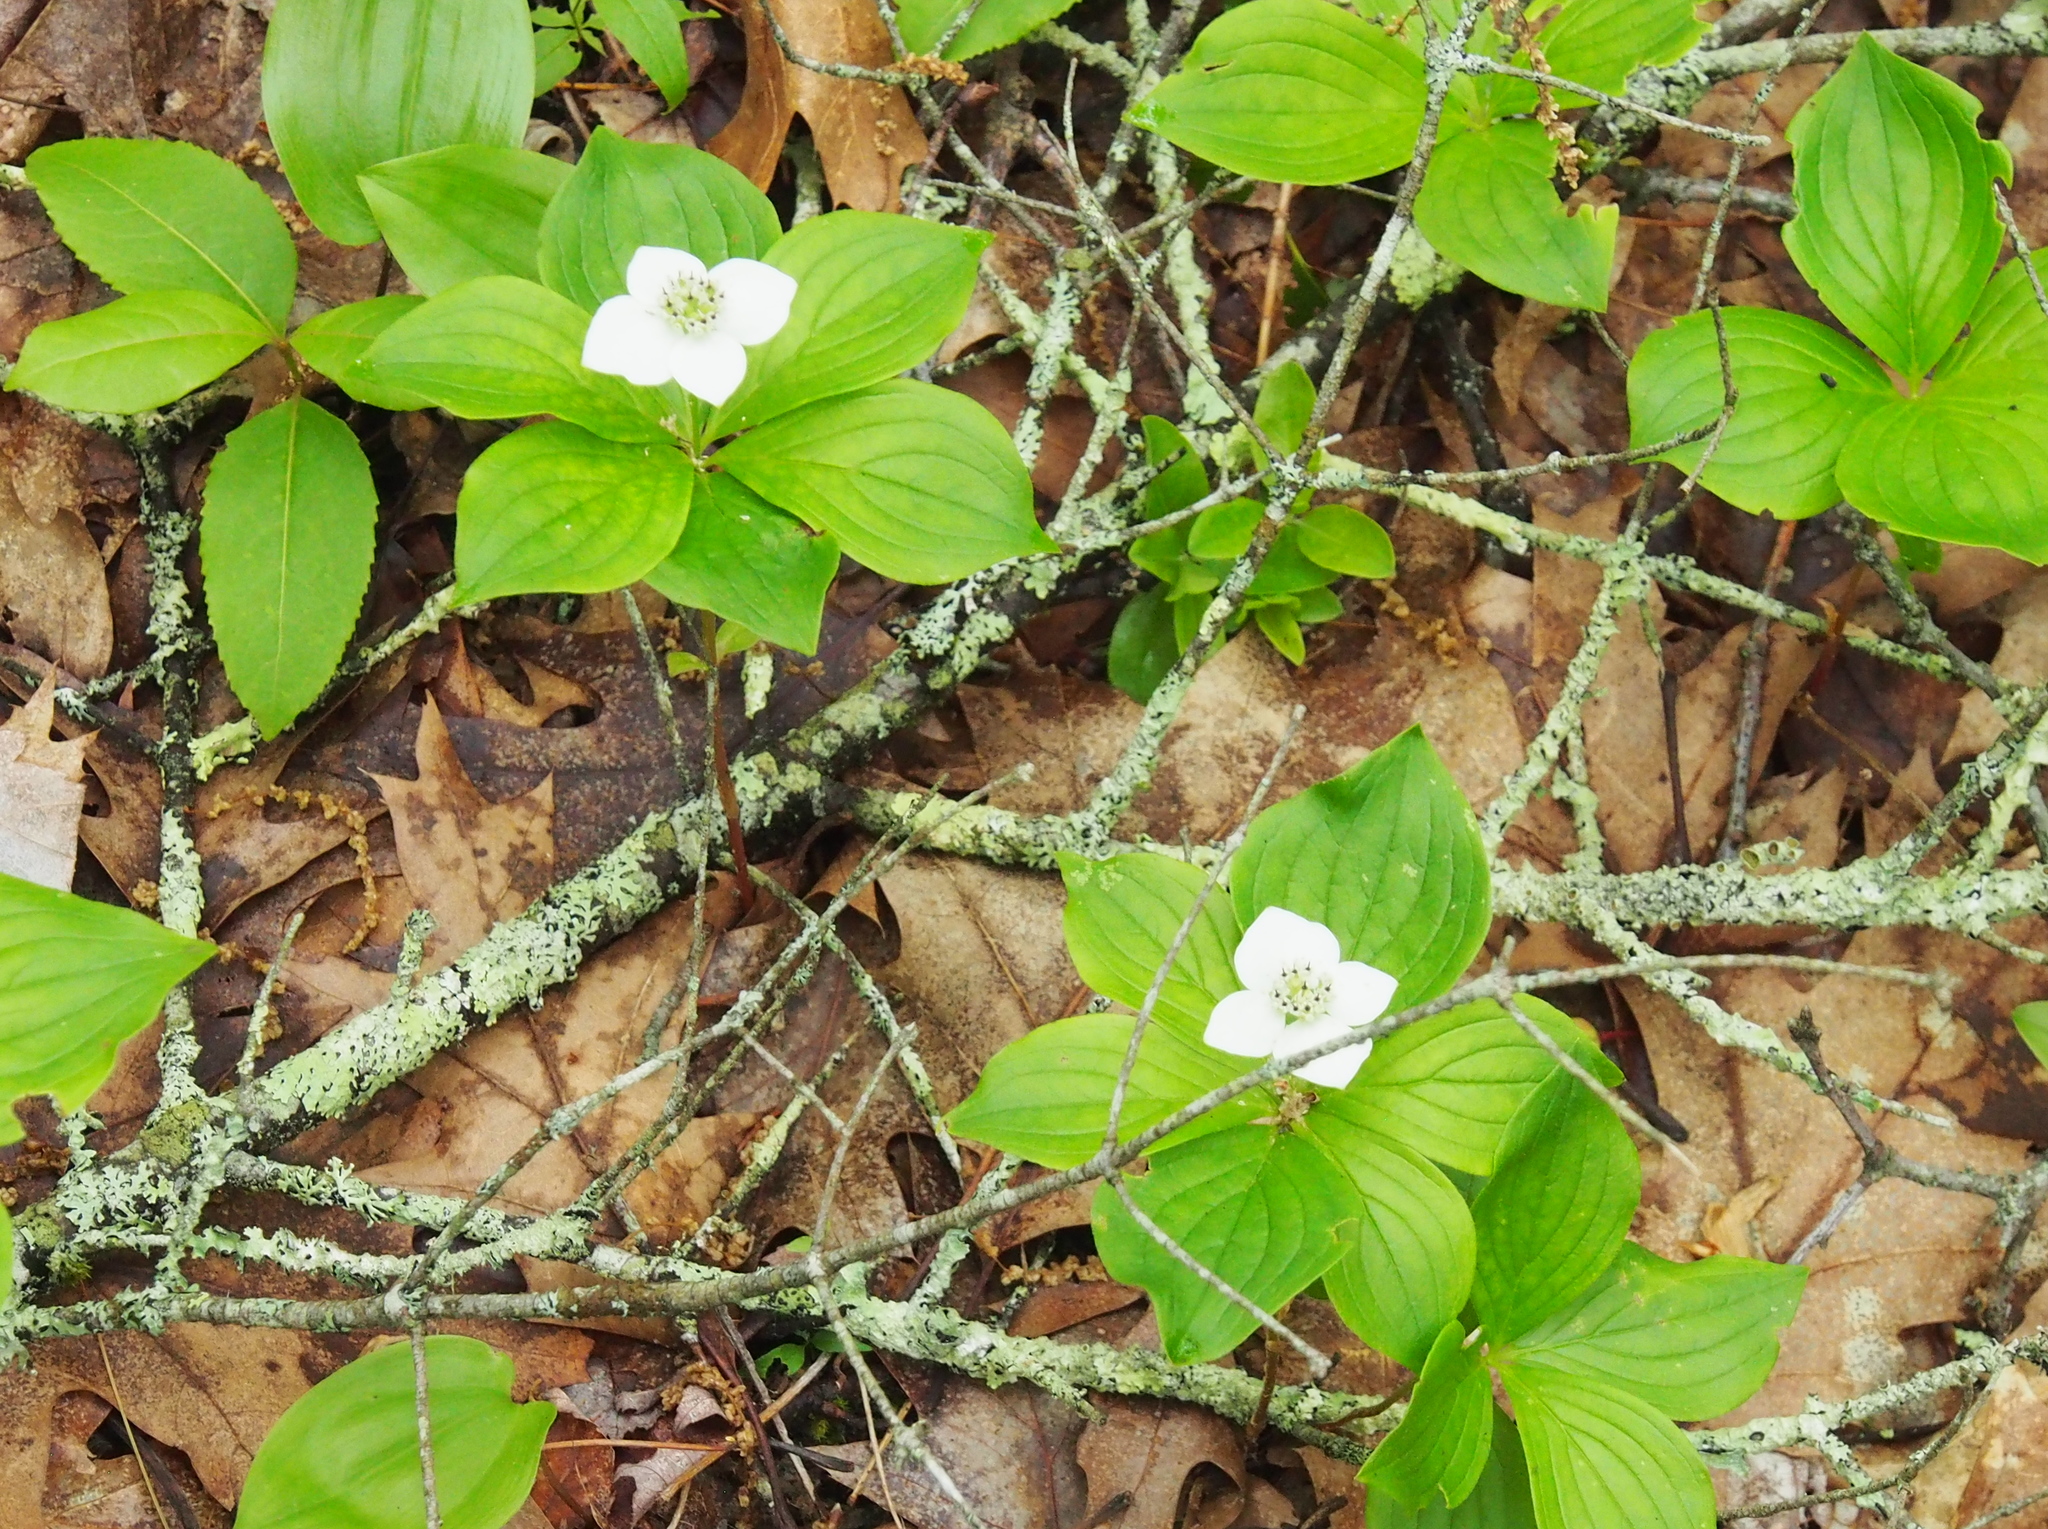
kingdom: Plantae
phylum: Tracheophyta
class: Magnoliopsida
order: Cornales
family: Cornaceae
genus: Cornus
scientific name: Cornus canadensis
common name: Creeping dogwood
